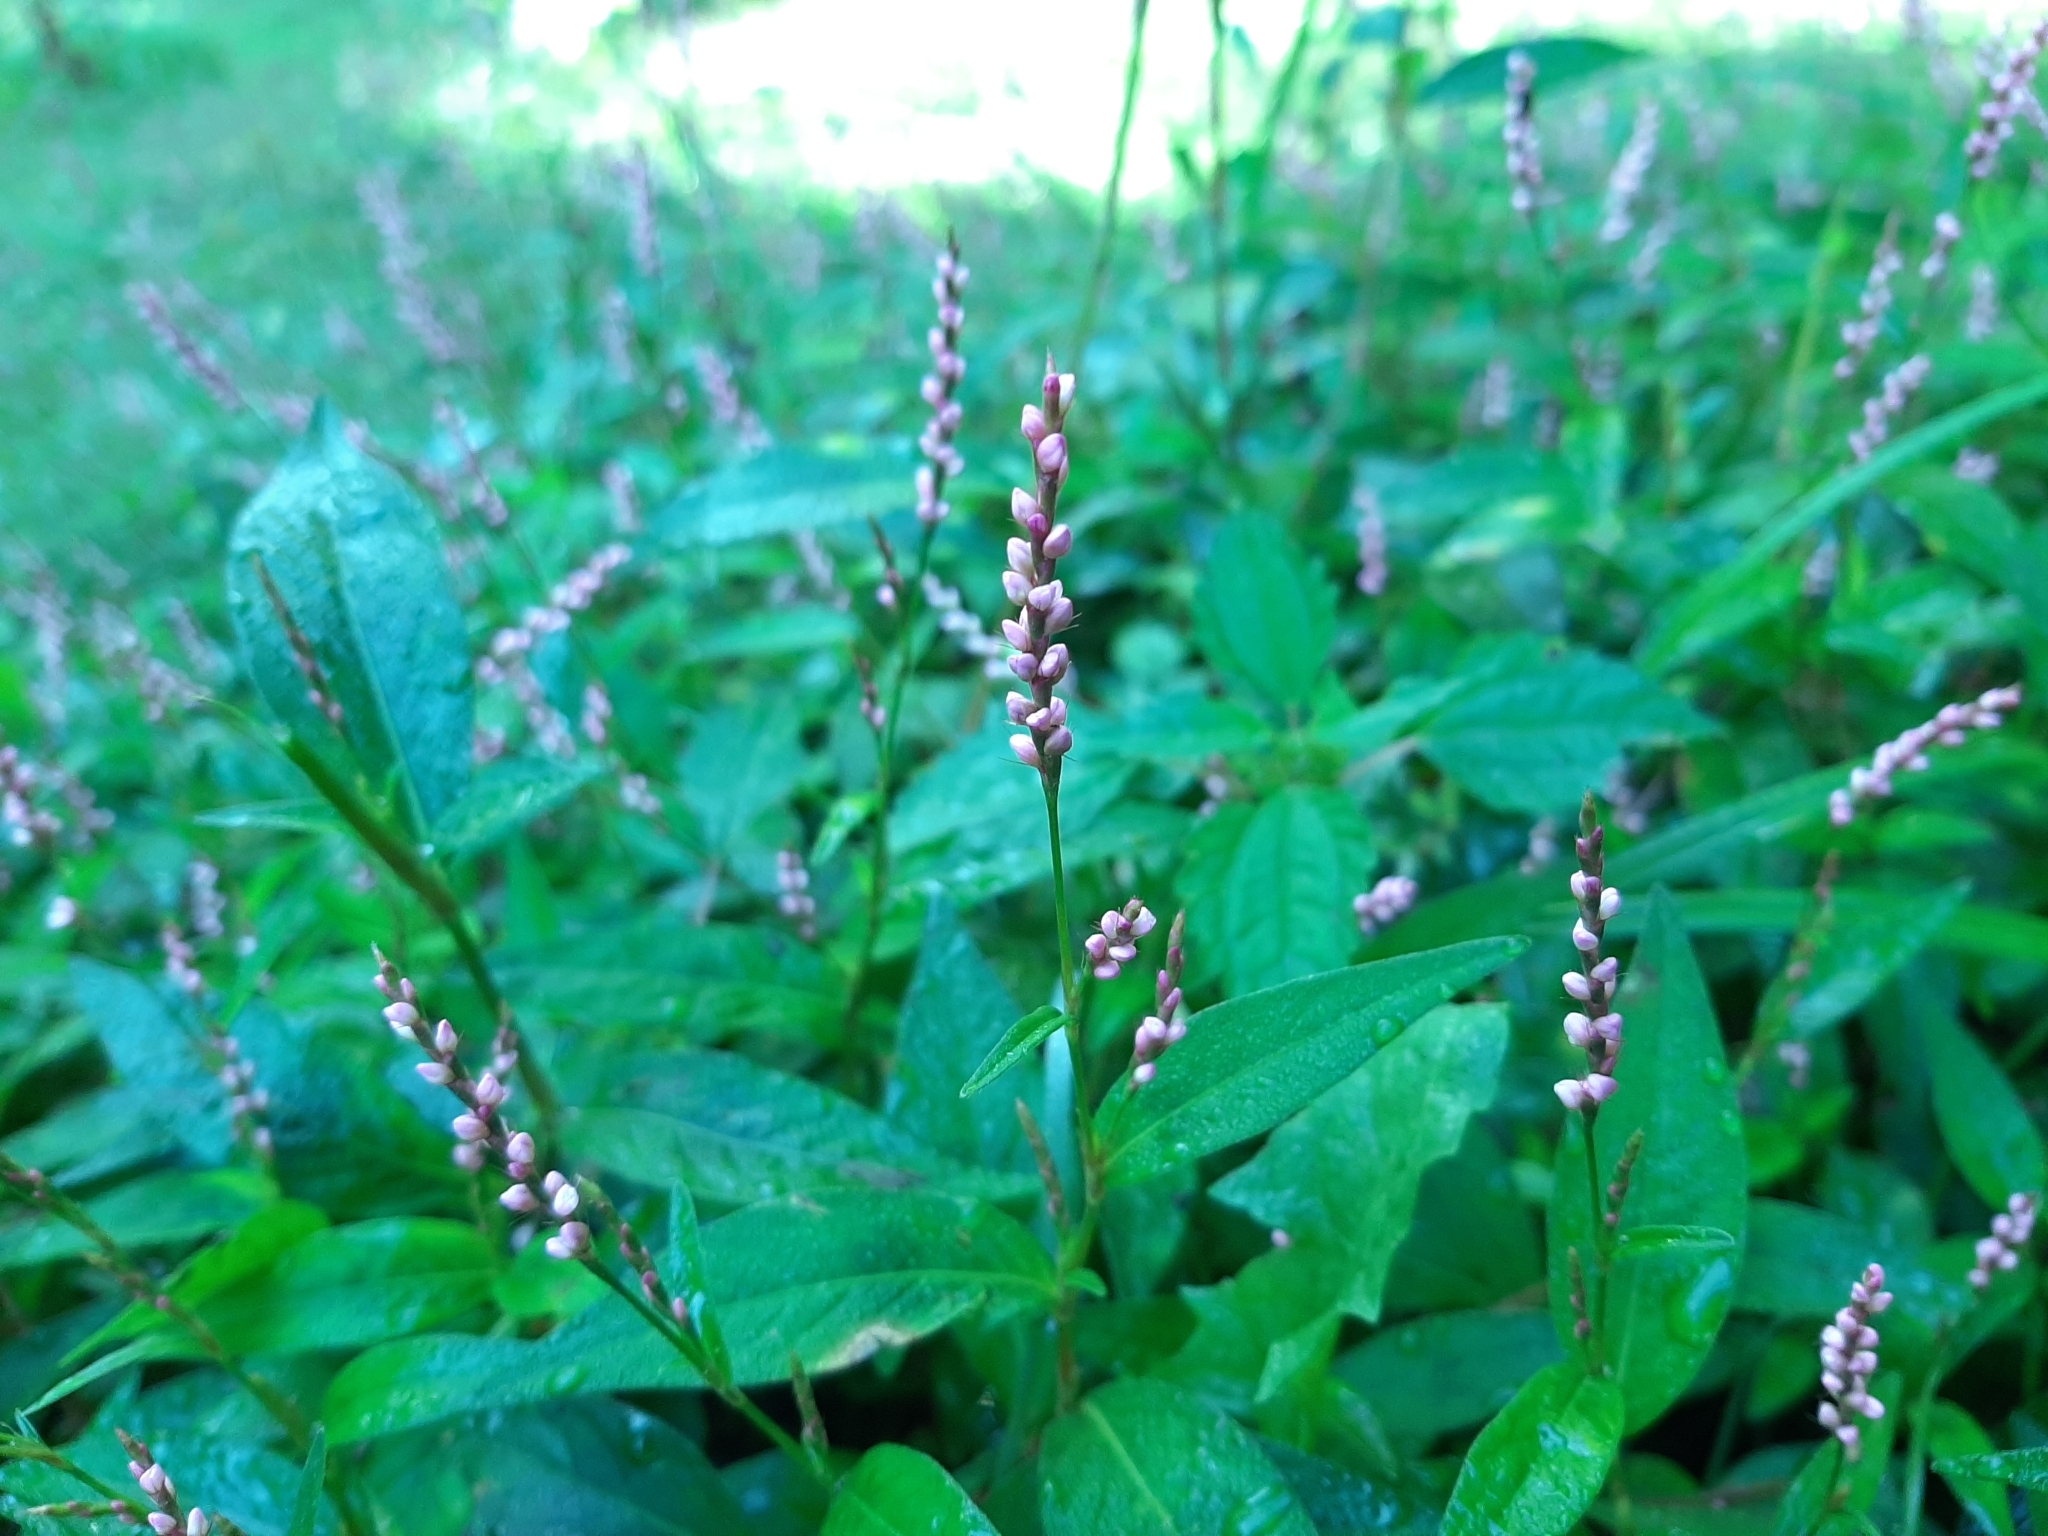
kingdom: Plantae
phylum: Tracheophyta
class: Magnoliopsida
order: Caryophyllales
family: Polygonaceae
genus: Persicaria
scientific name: Persicaria longiseta
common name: Bristly lady's-thumb
